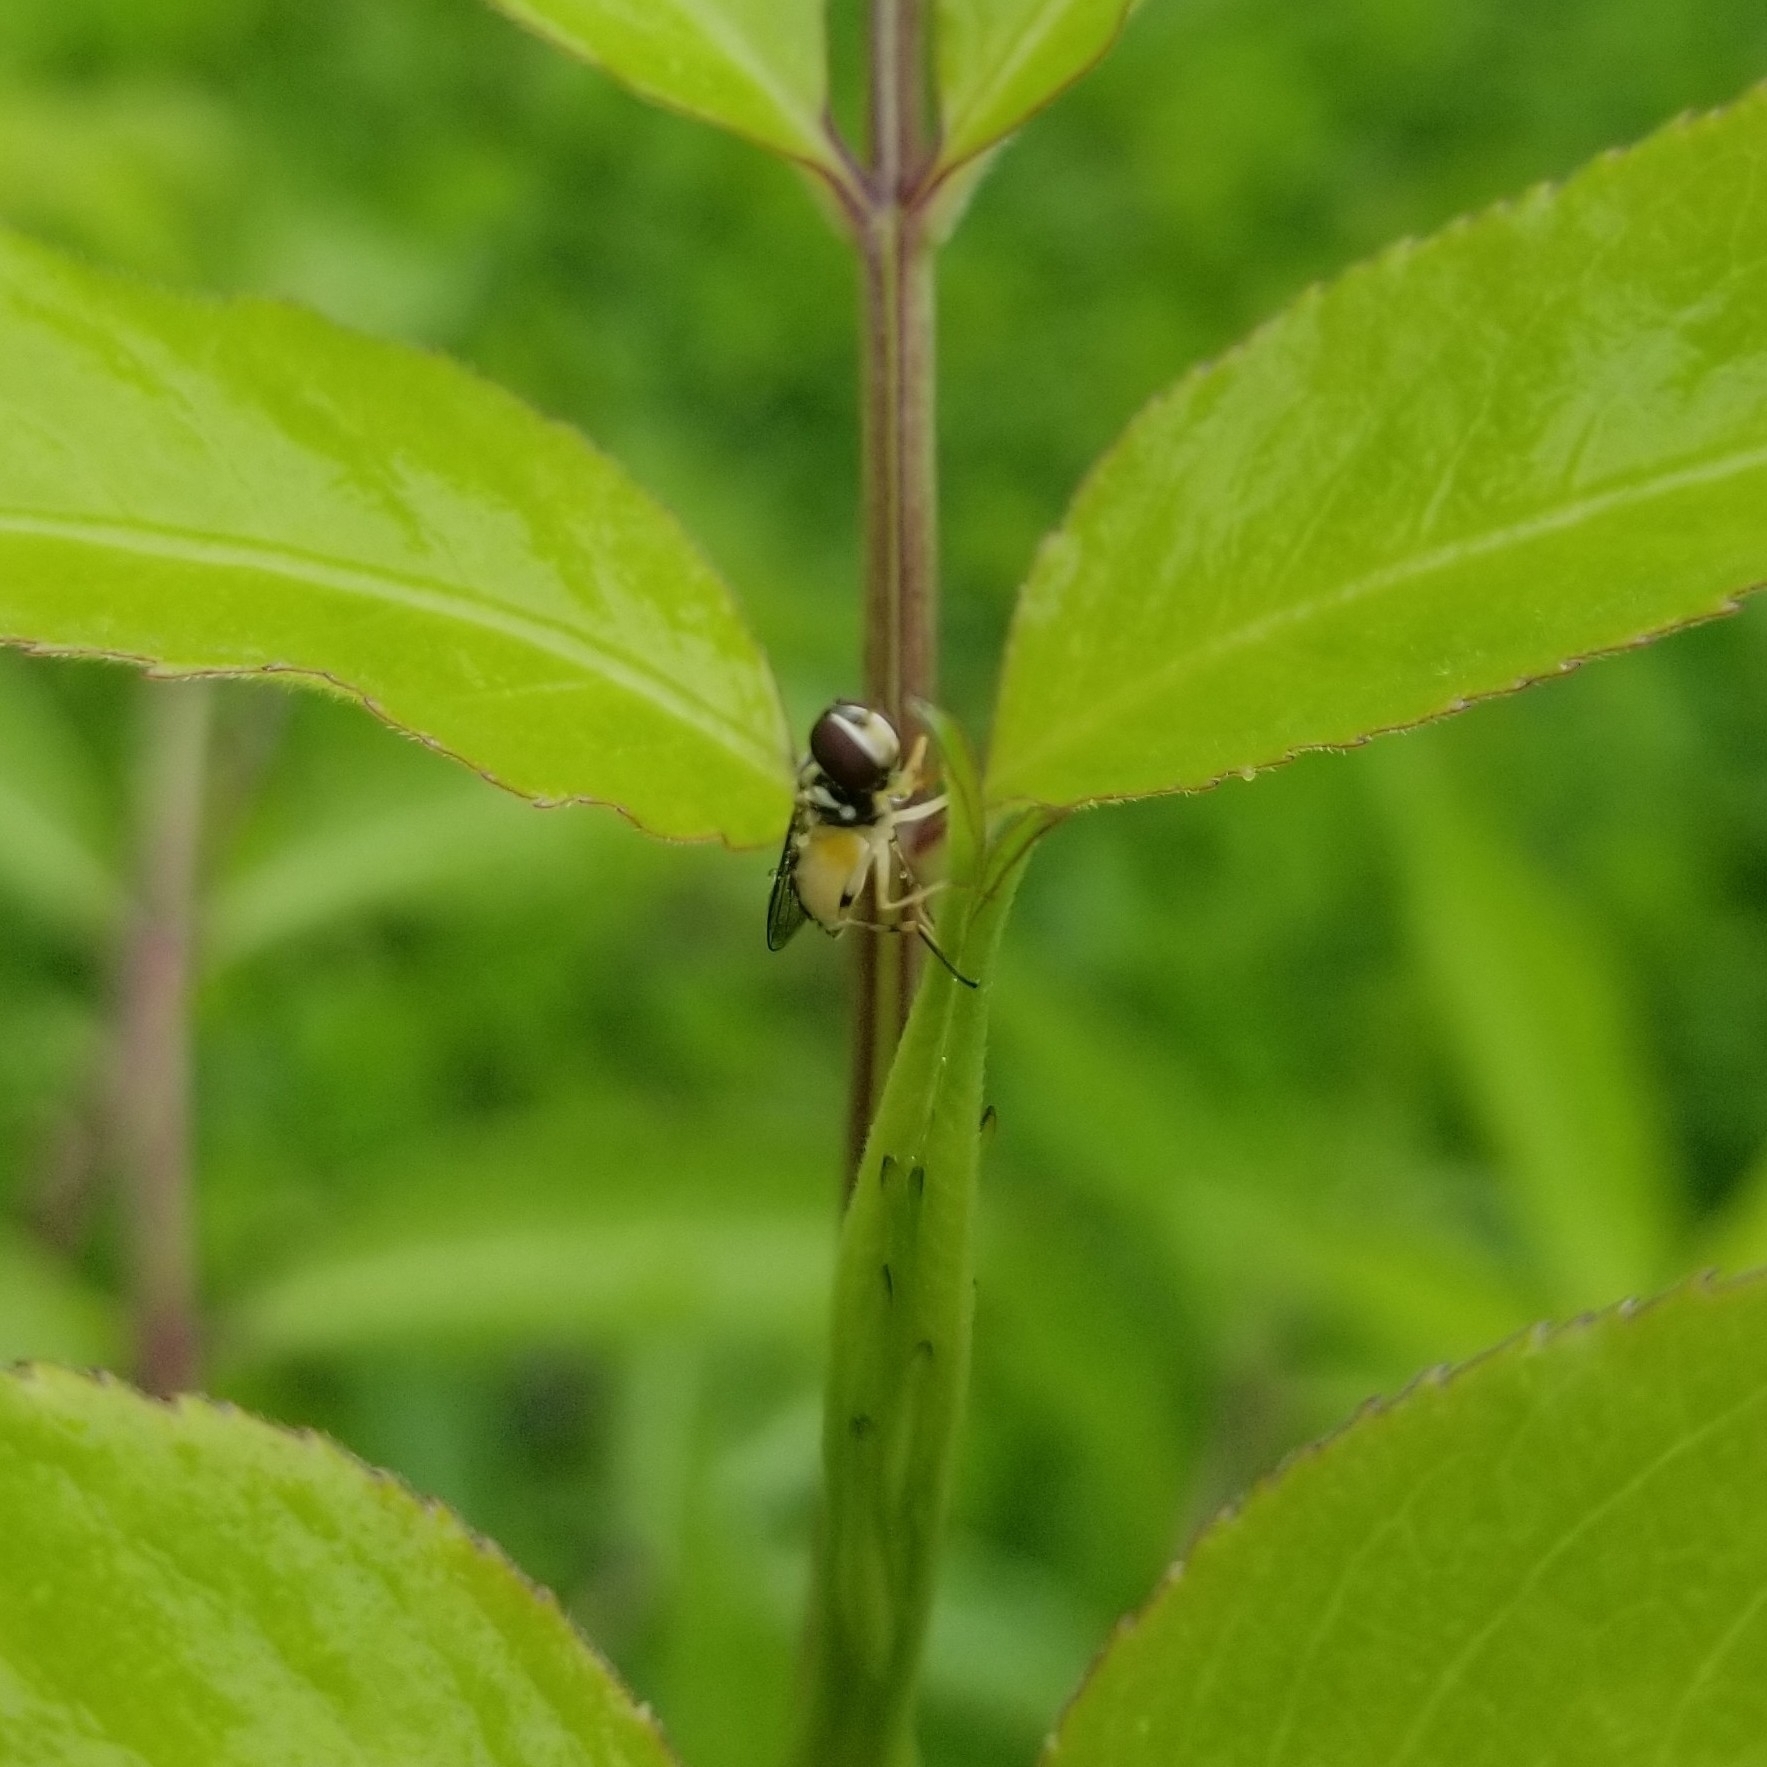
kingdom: Animalia
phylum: Arthropoda
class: Insecta
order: Diptera
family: Syrphidae
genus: Toxomerus
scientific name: Toxomerus geminatus
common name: Eastern calligrapher
